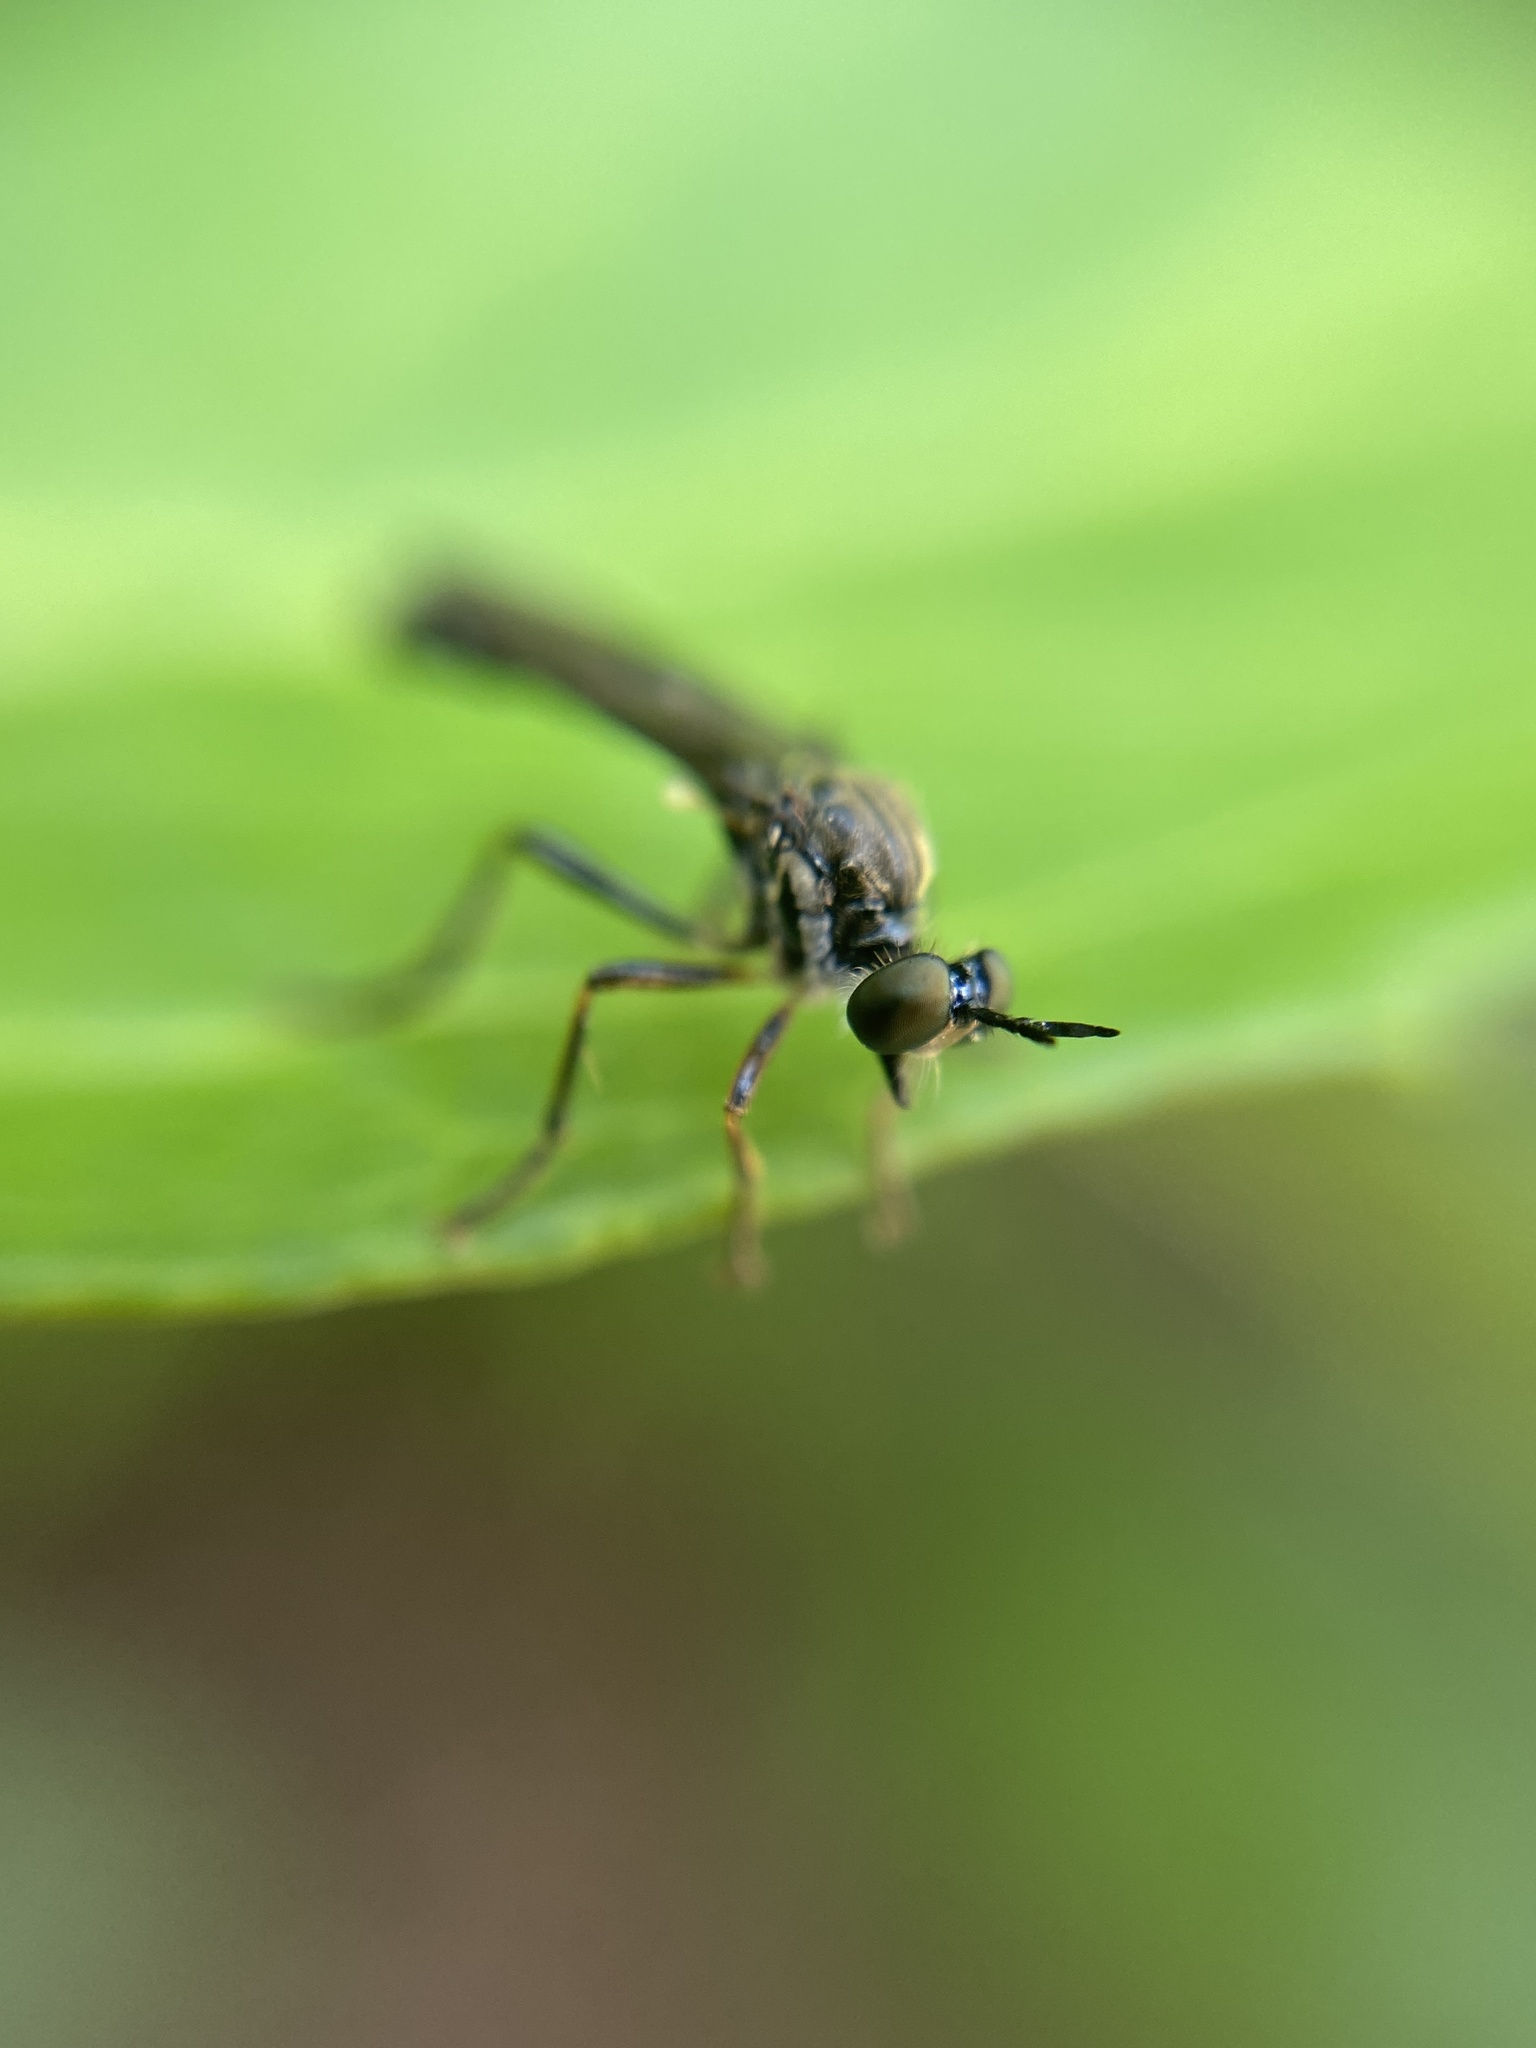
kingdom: Animalia
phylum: Arthropoda
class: Insecta
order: Diptera
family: Asilidae
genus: Dioctria
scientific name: Dioctria hyalipennis
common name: Stripe-legged robberfly
